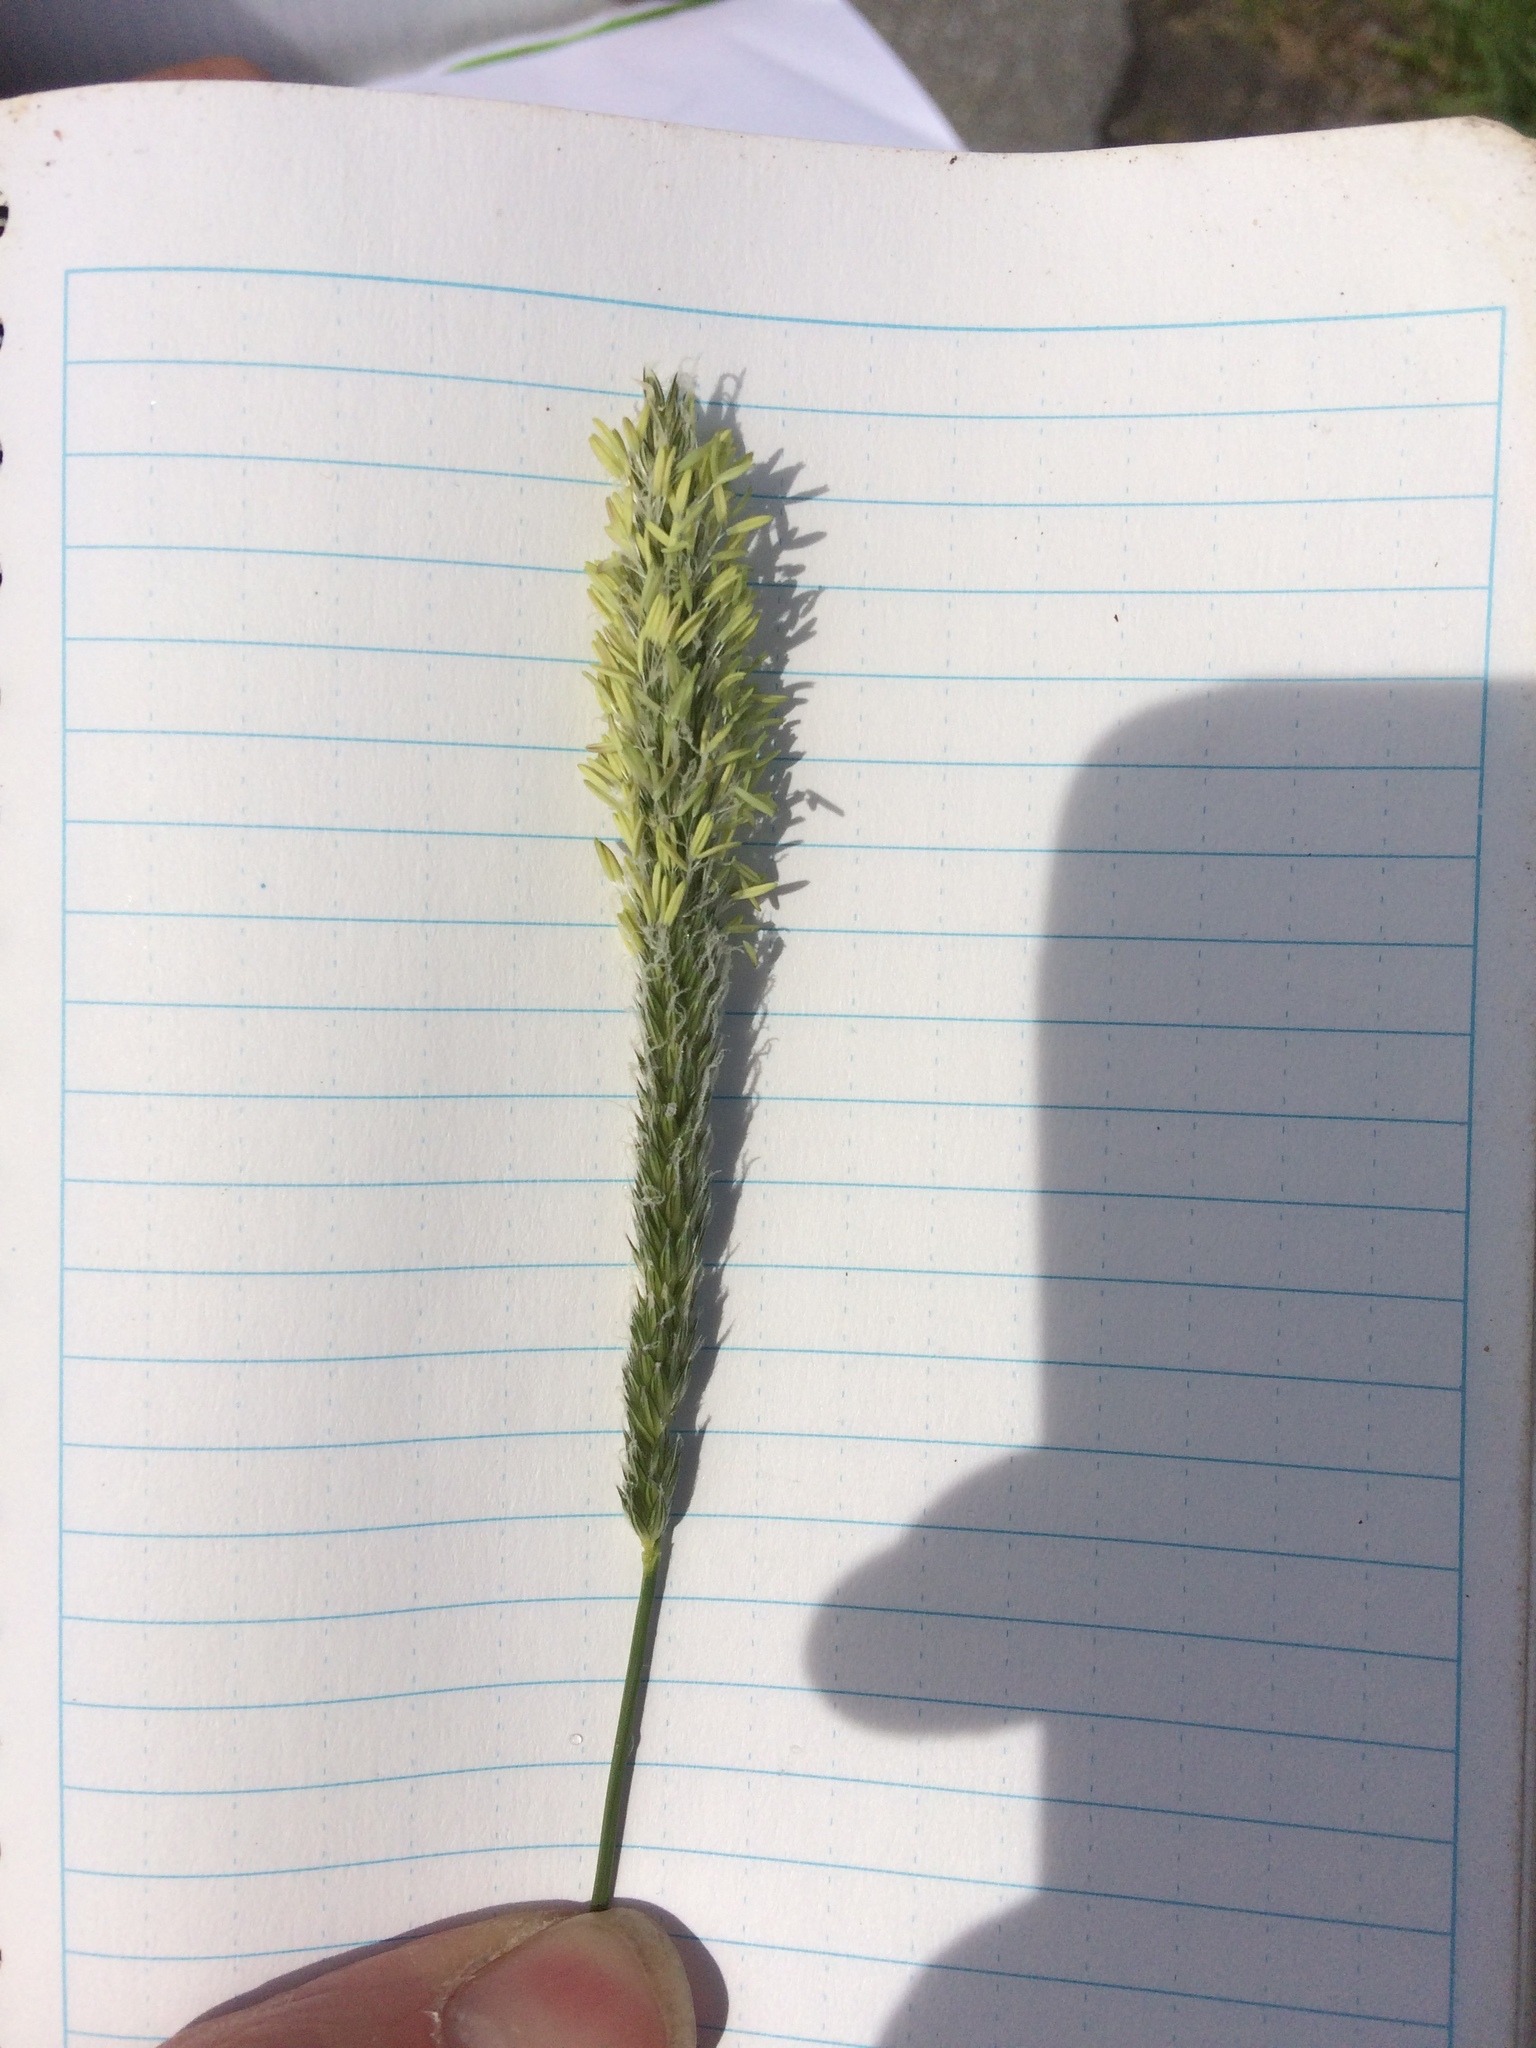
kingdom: Plantae
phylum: Tracheophyta
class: Liliopsida
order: Poales
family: Poaceae
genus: Alopecurus
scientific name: Alopecurus pratensis
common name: Meadow foxtail
